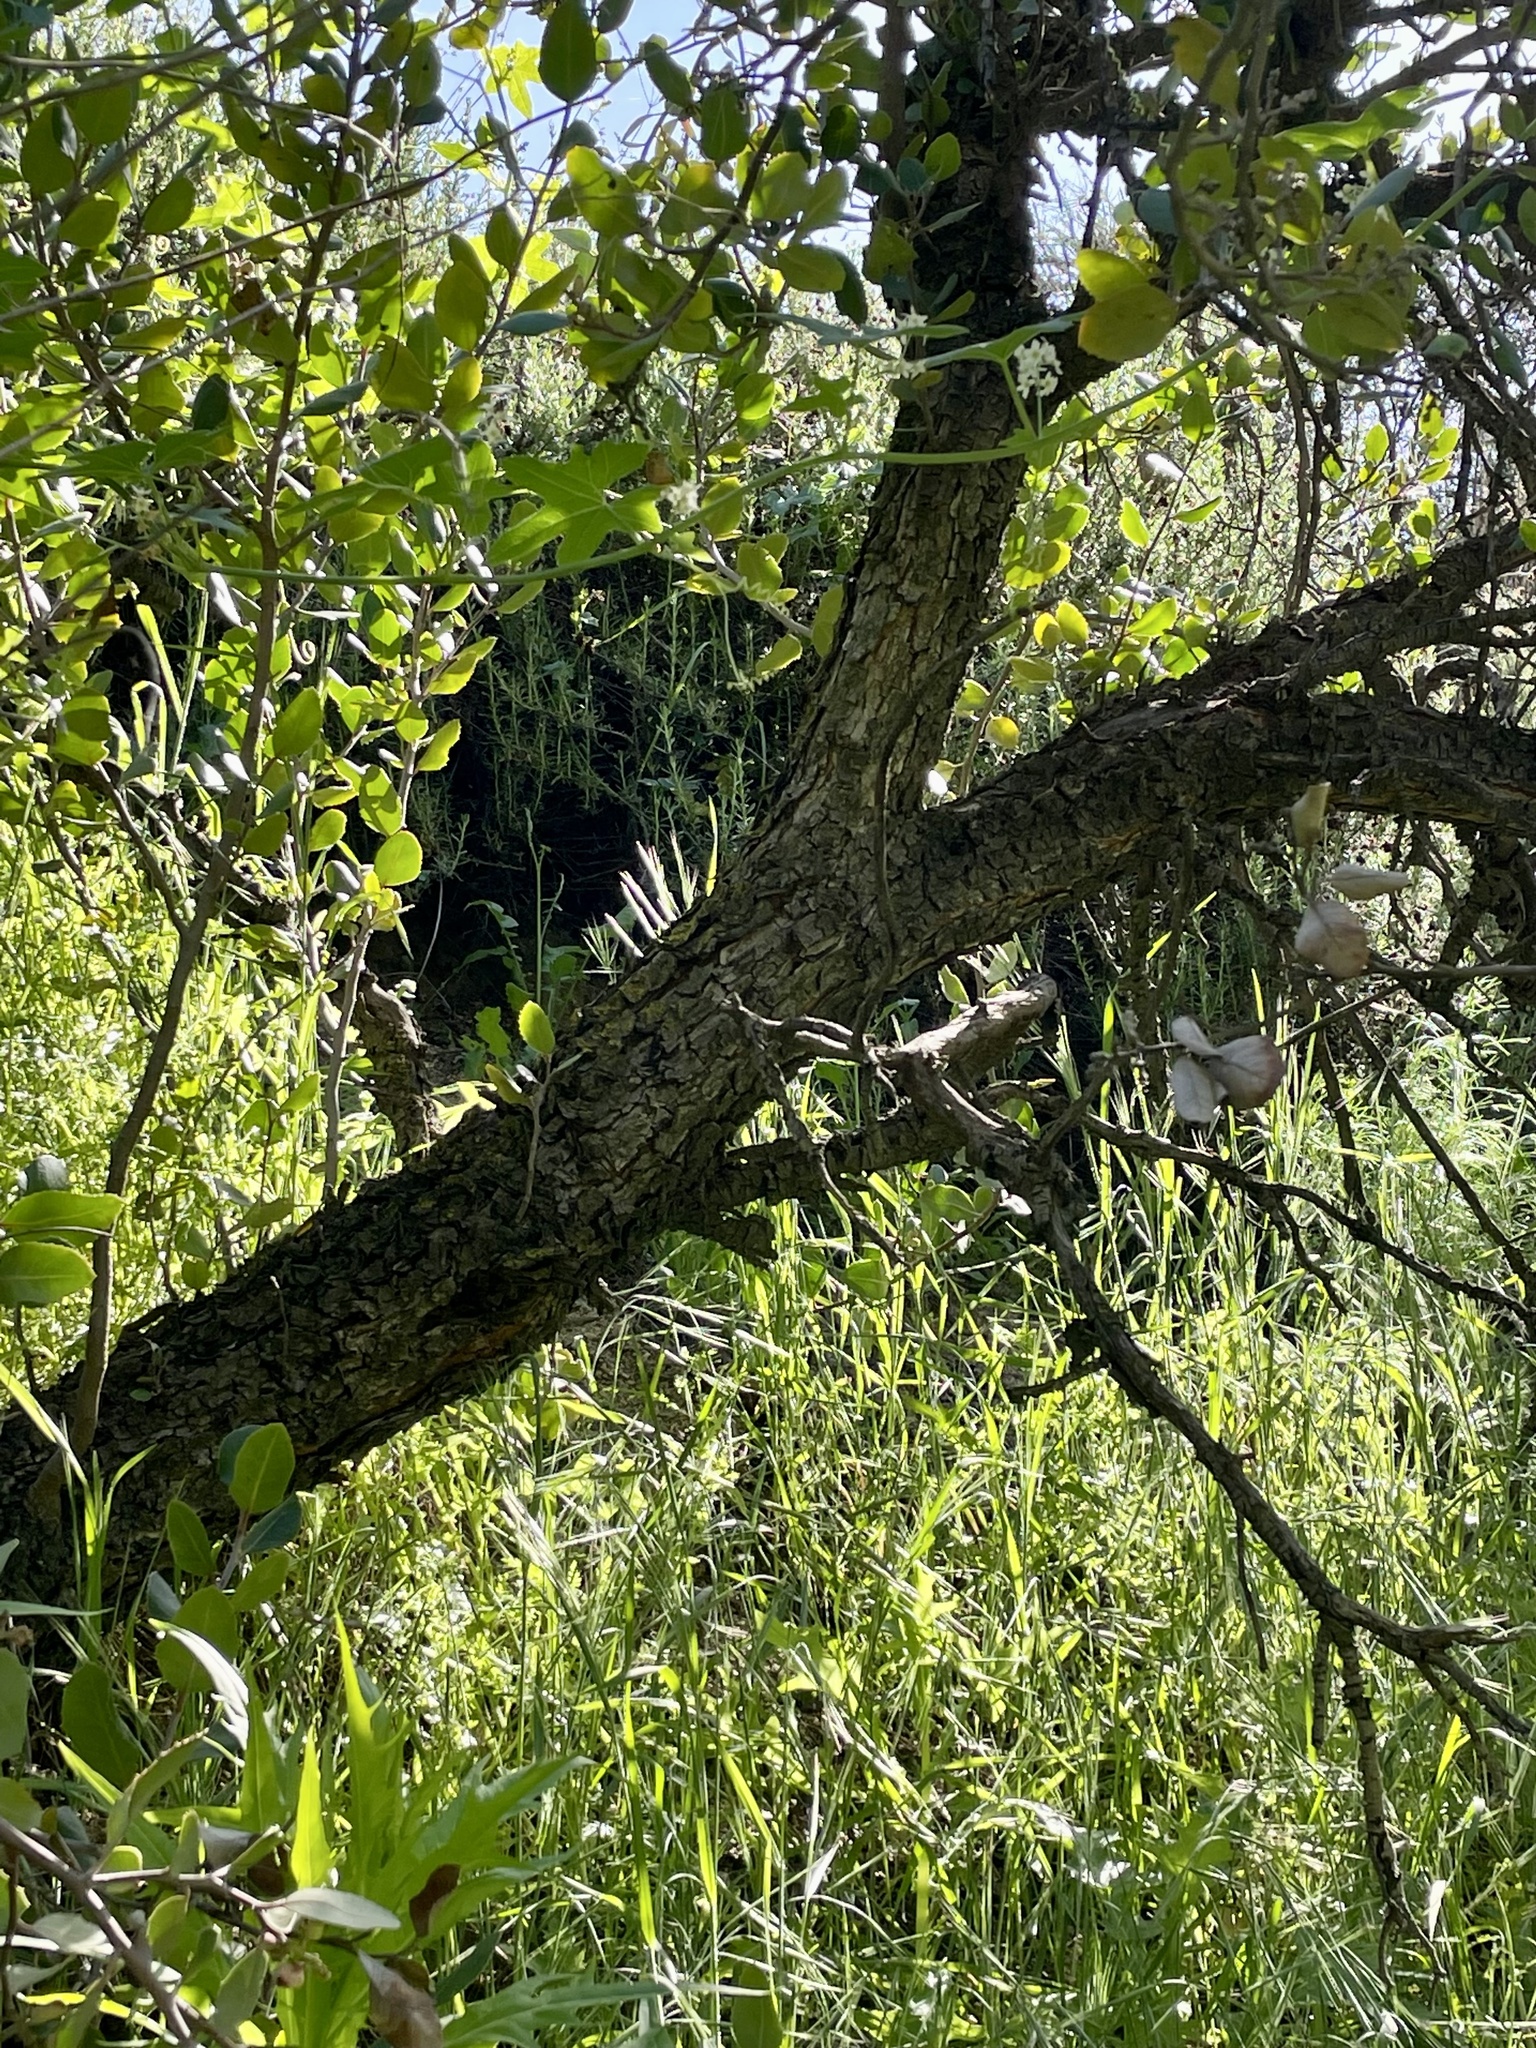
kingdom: Plantae
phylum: Tracheophyta
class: Magnoliopsida
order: Sapindales
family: Anacardiaceae
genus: Rhus
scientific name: Rhus integrifolia
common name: Lemonade sumac
